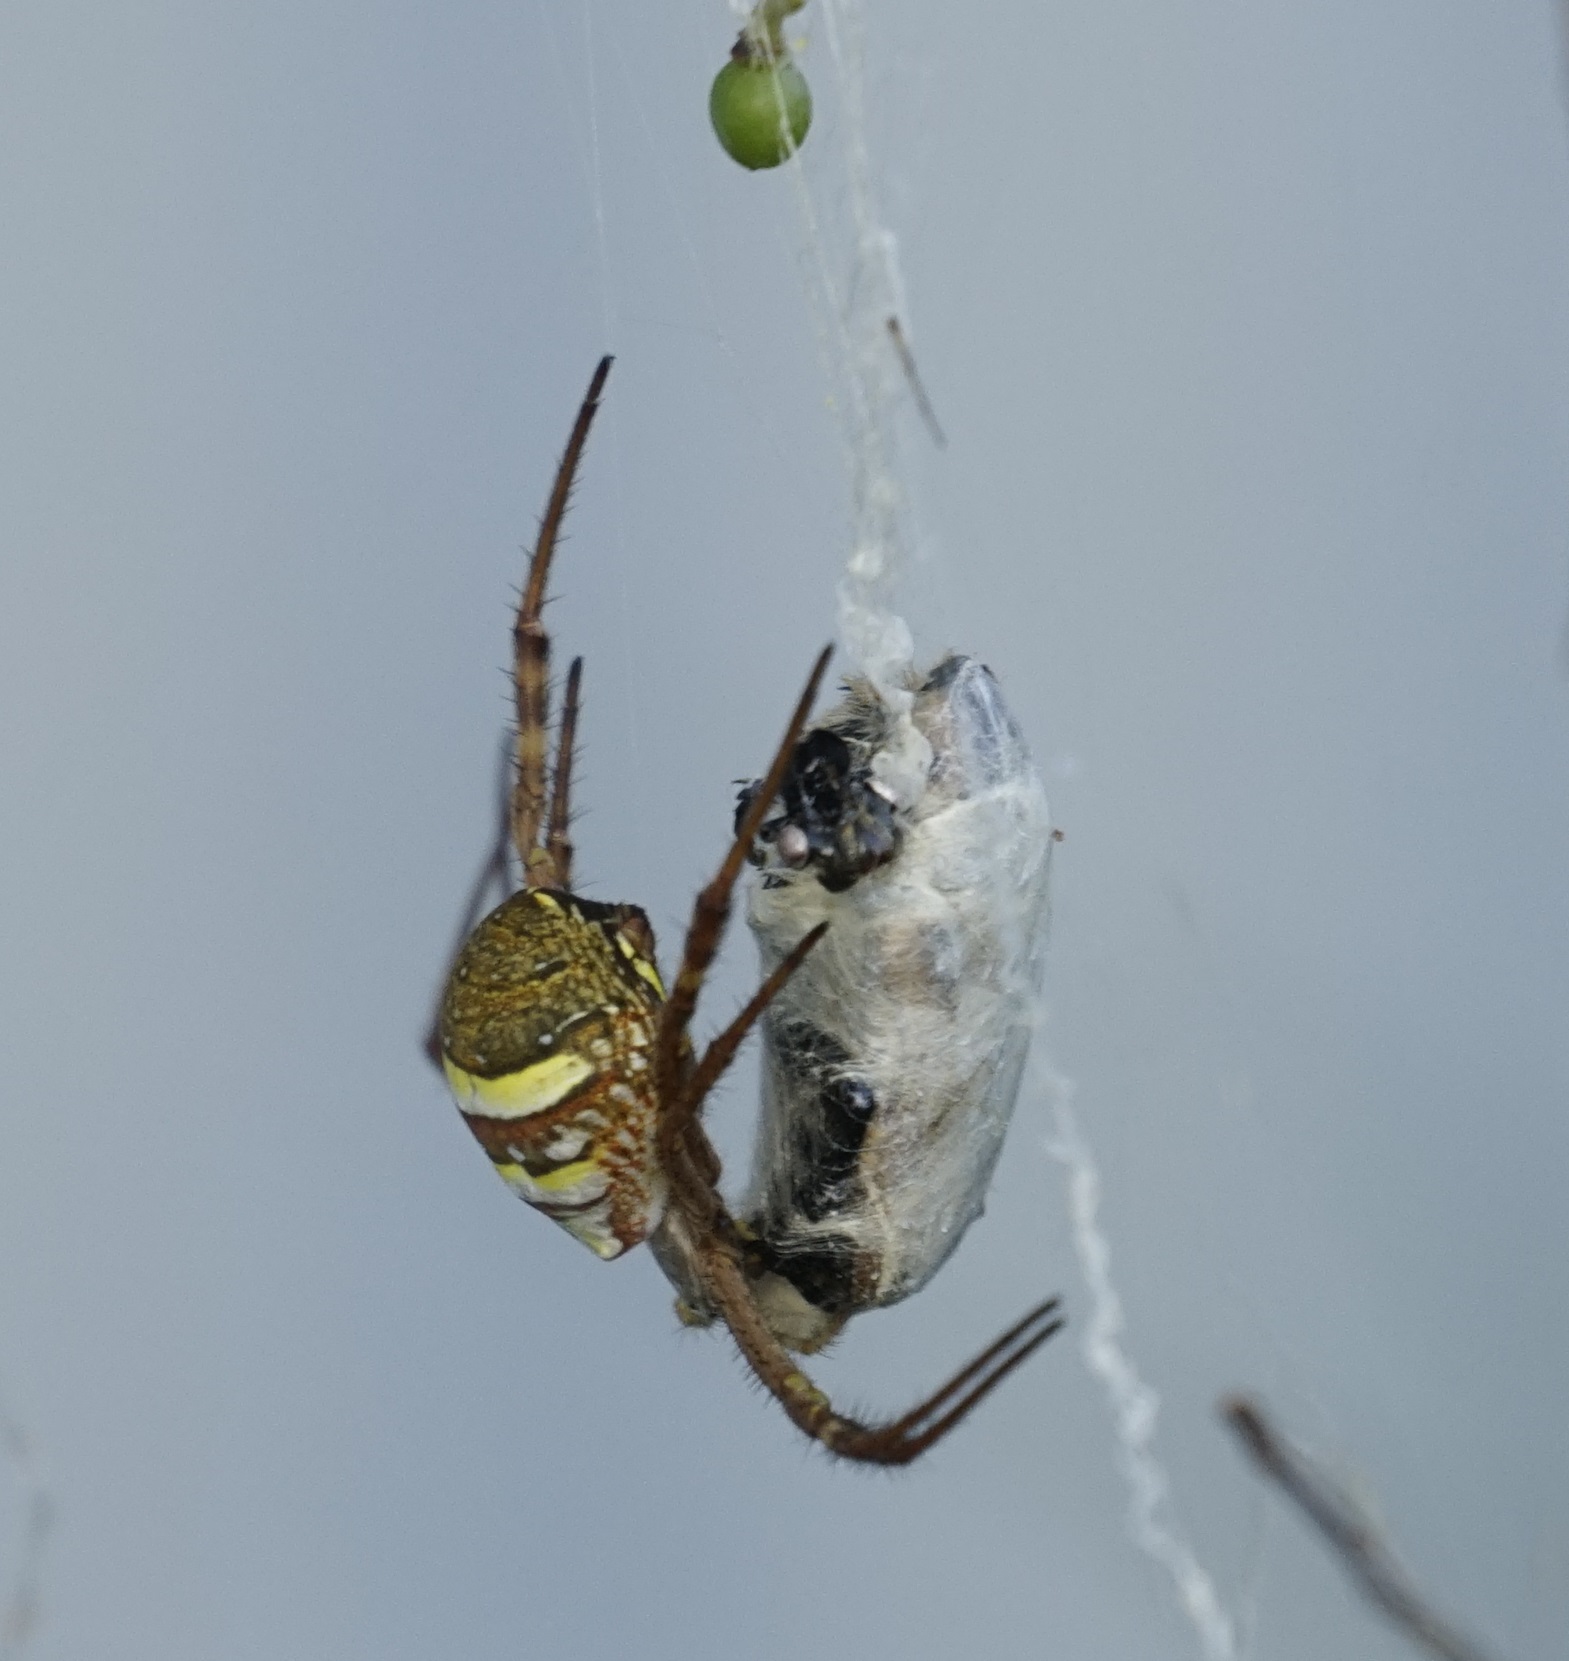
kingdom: Animalia
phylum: Arthropoda
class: Arachnida
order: Araneae
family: Araneidae
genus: Argiope
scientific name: Argiope keyserlingi
